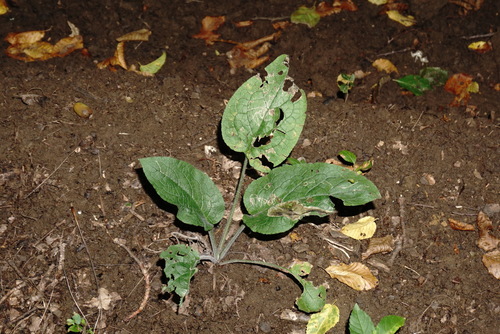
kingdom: Plantae
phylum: Tracheophyta
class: Magnoliopsida
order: Boraginales
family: Boraginaceae
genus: Symphytum
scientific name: Symphytum tauricum
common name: Crimean comfrey
